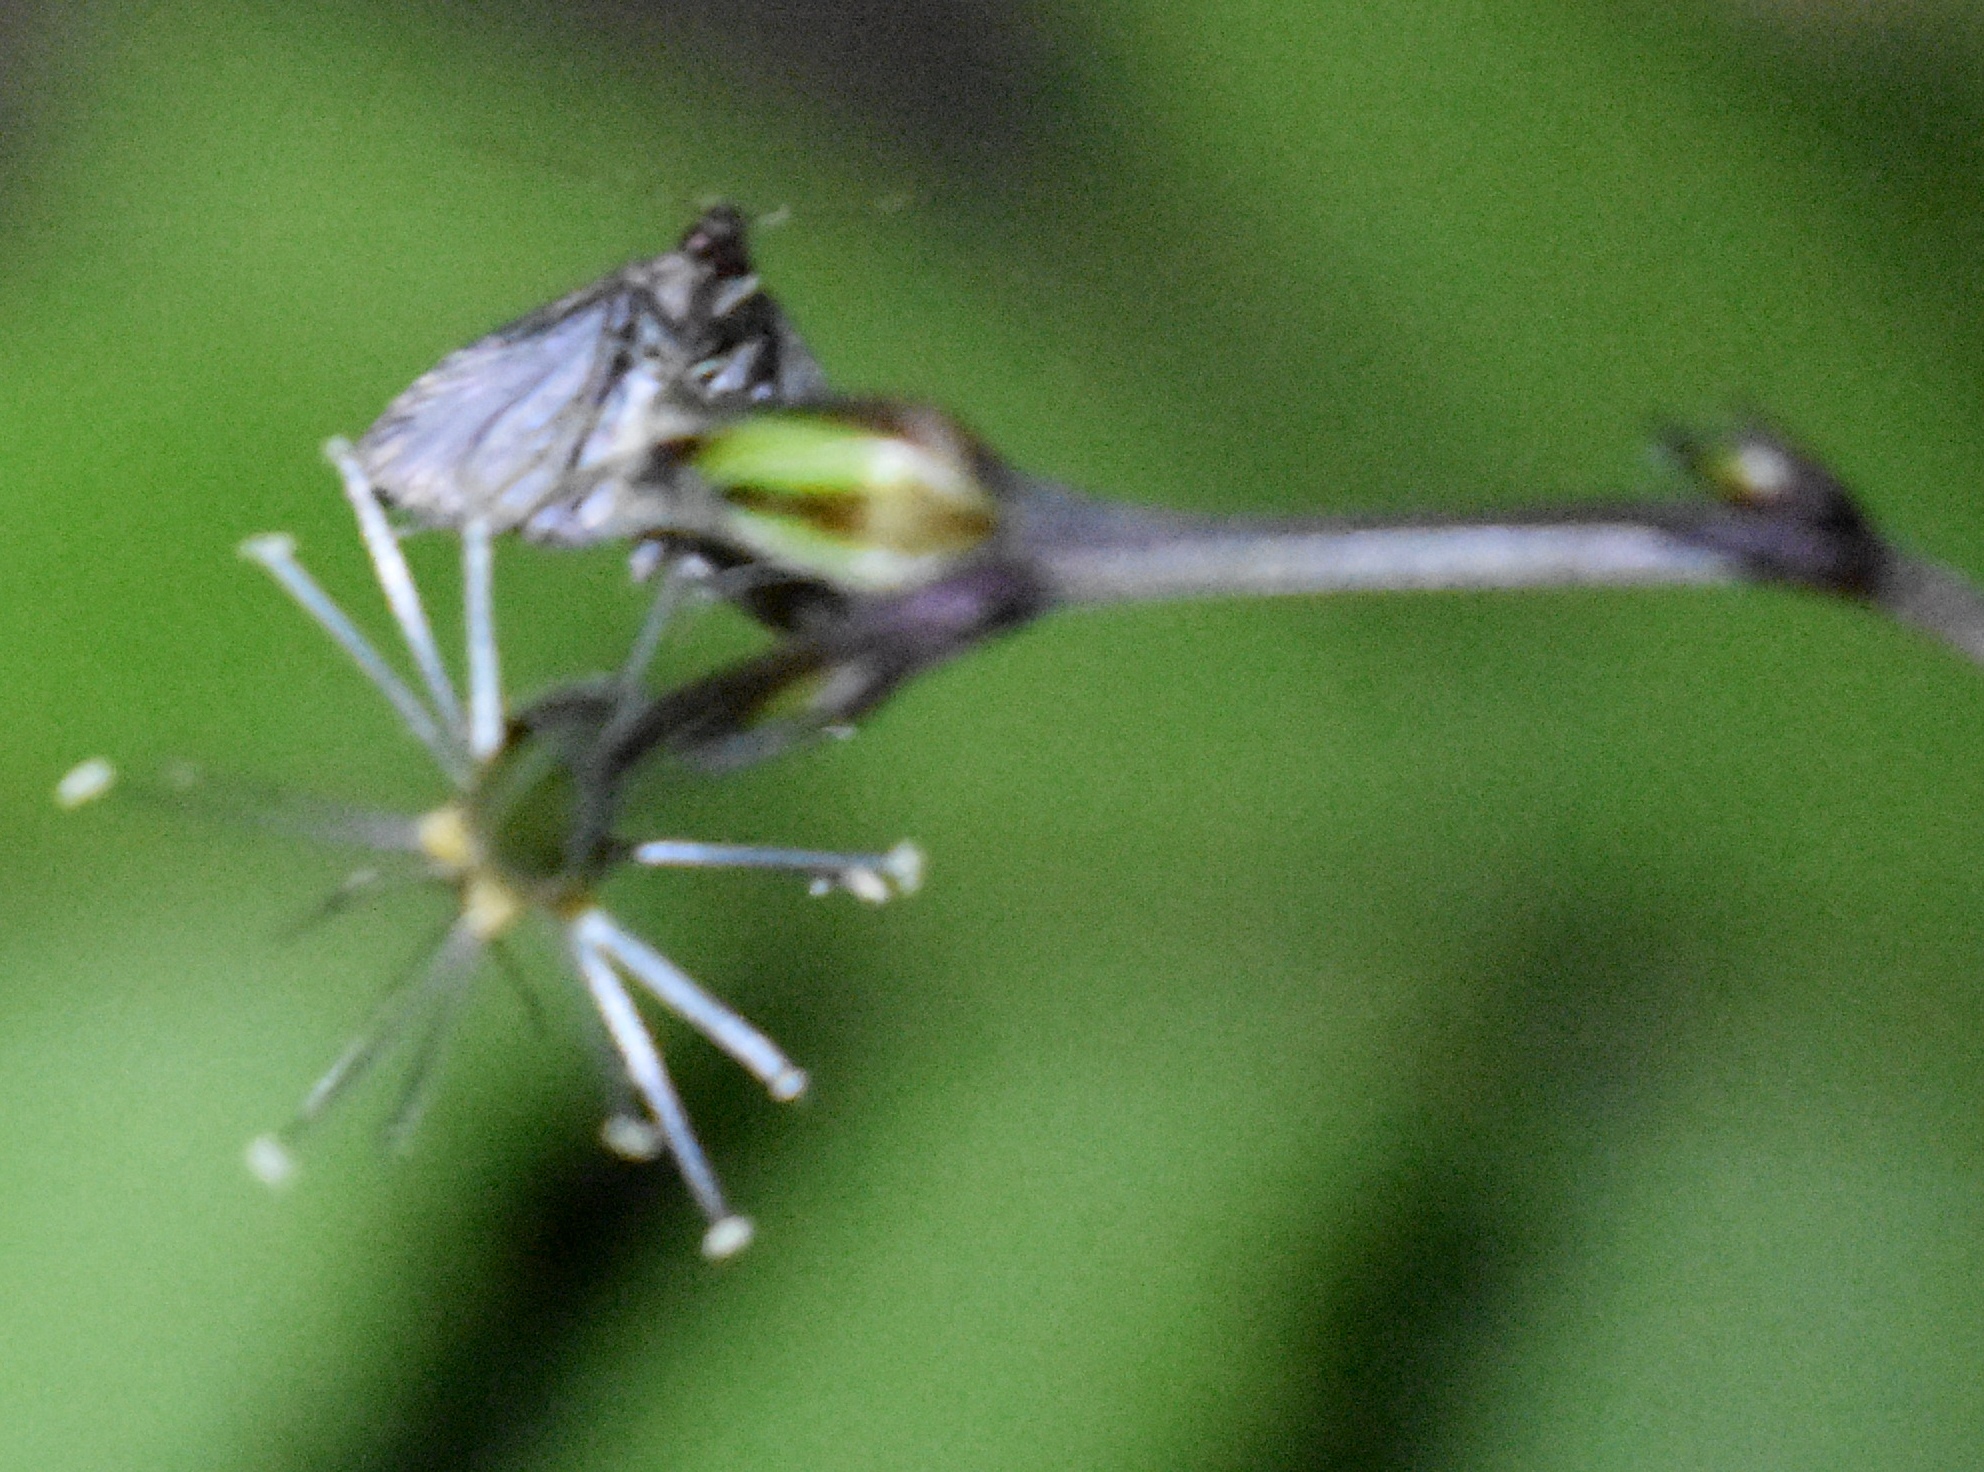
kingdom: Animalia
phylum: Arthropoda
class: Insecta
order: Lepidoptera
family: Erebidae
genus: Pseudoschrankia
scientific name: Pseudoschrankia brevipalpis
